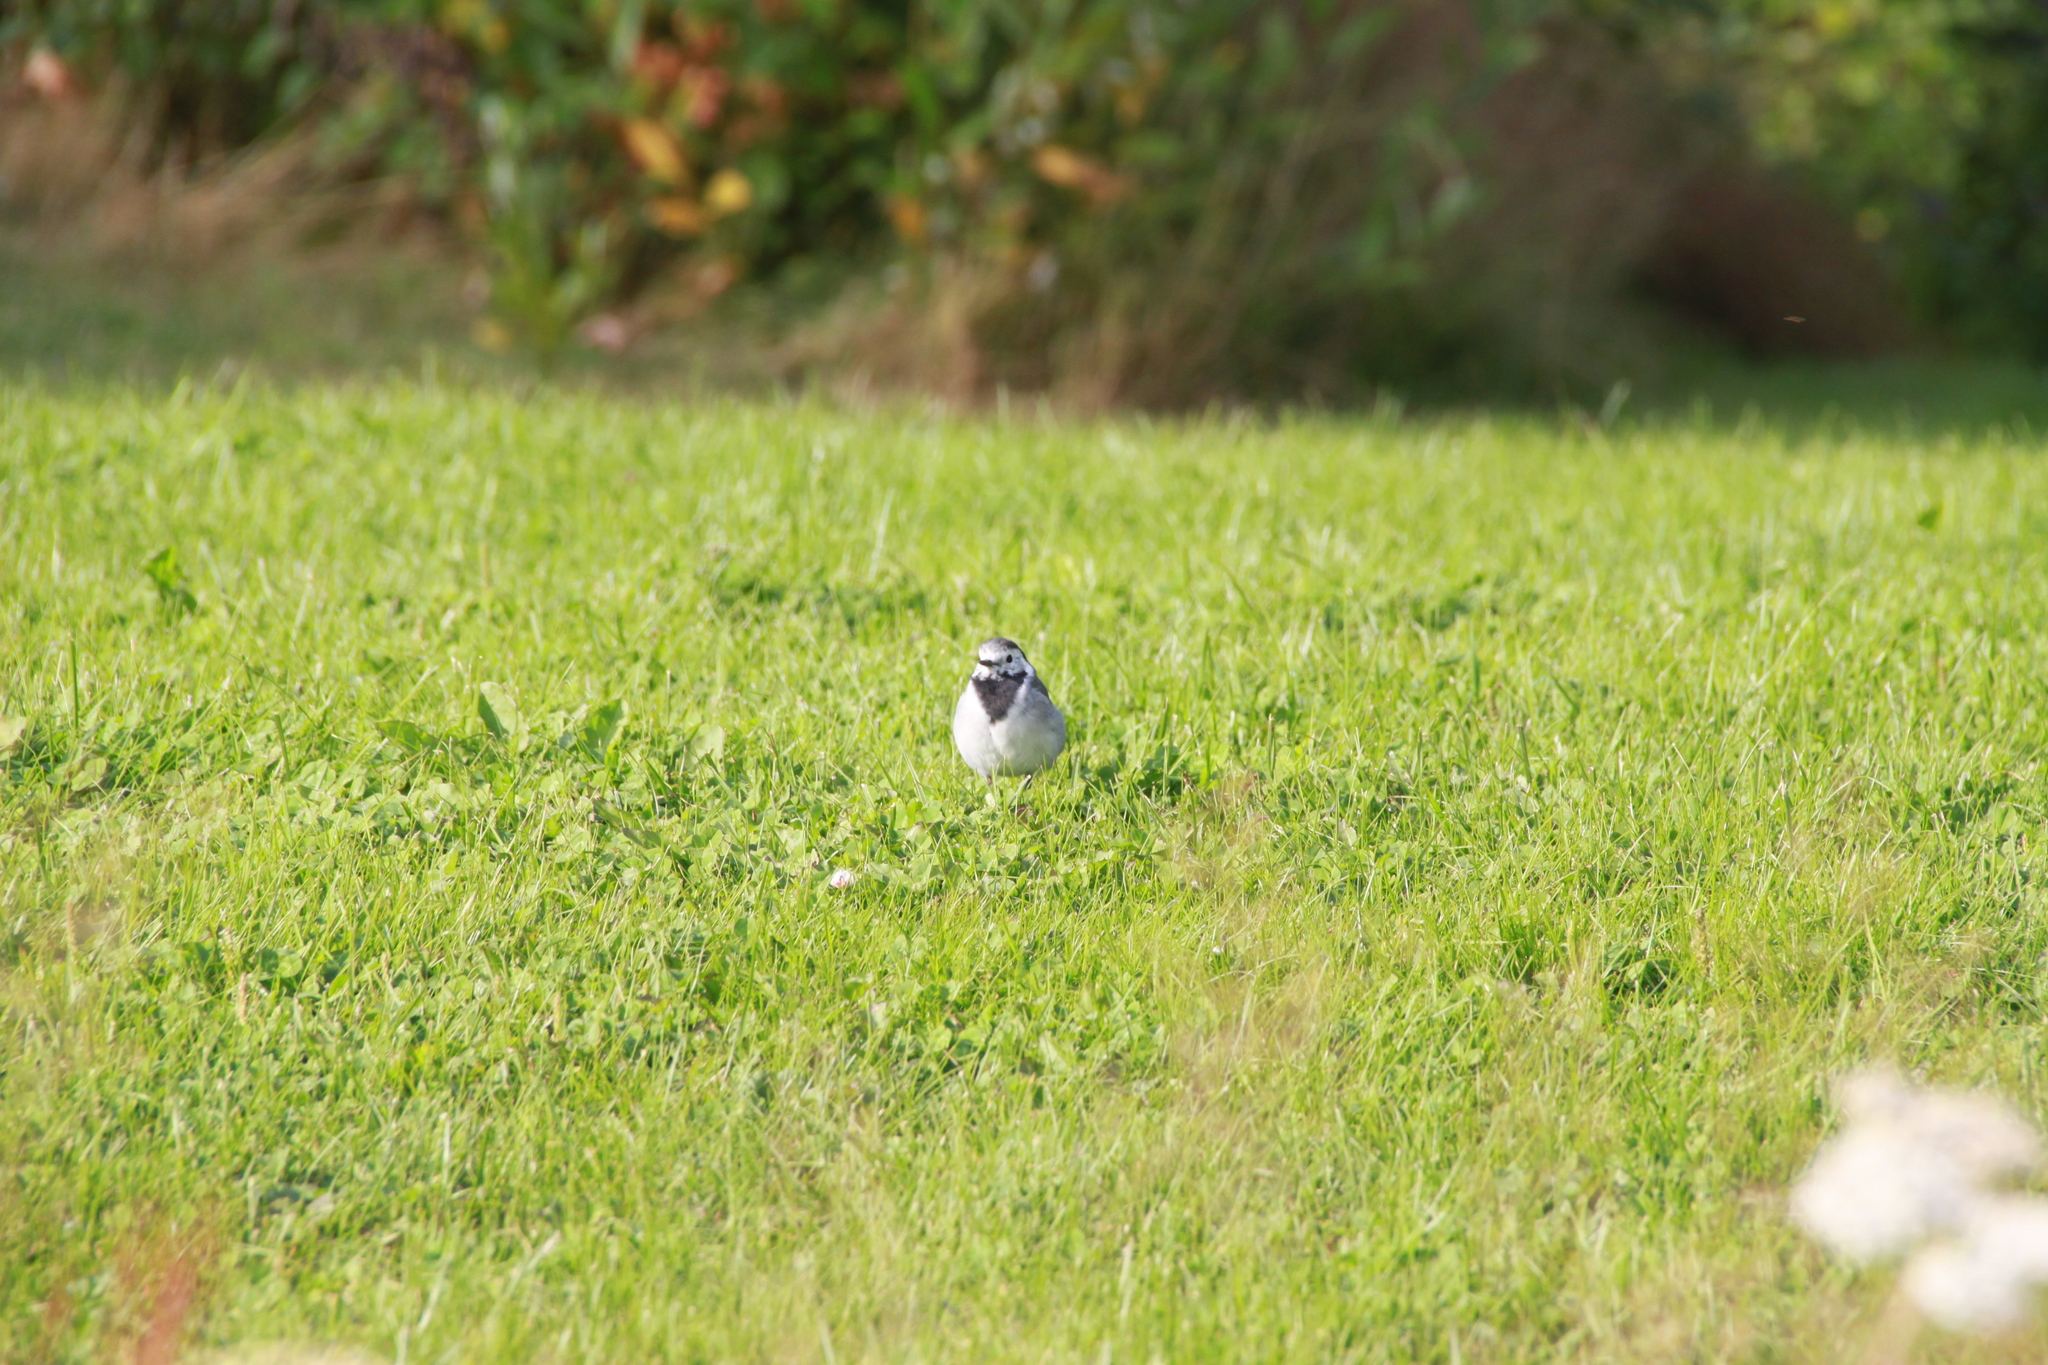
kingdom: Animalia
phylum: Chordata
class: Aves
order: Passeriformes
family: Motacillidae
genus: Motacilla
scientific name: Motacilla alba
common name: White wagtail
